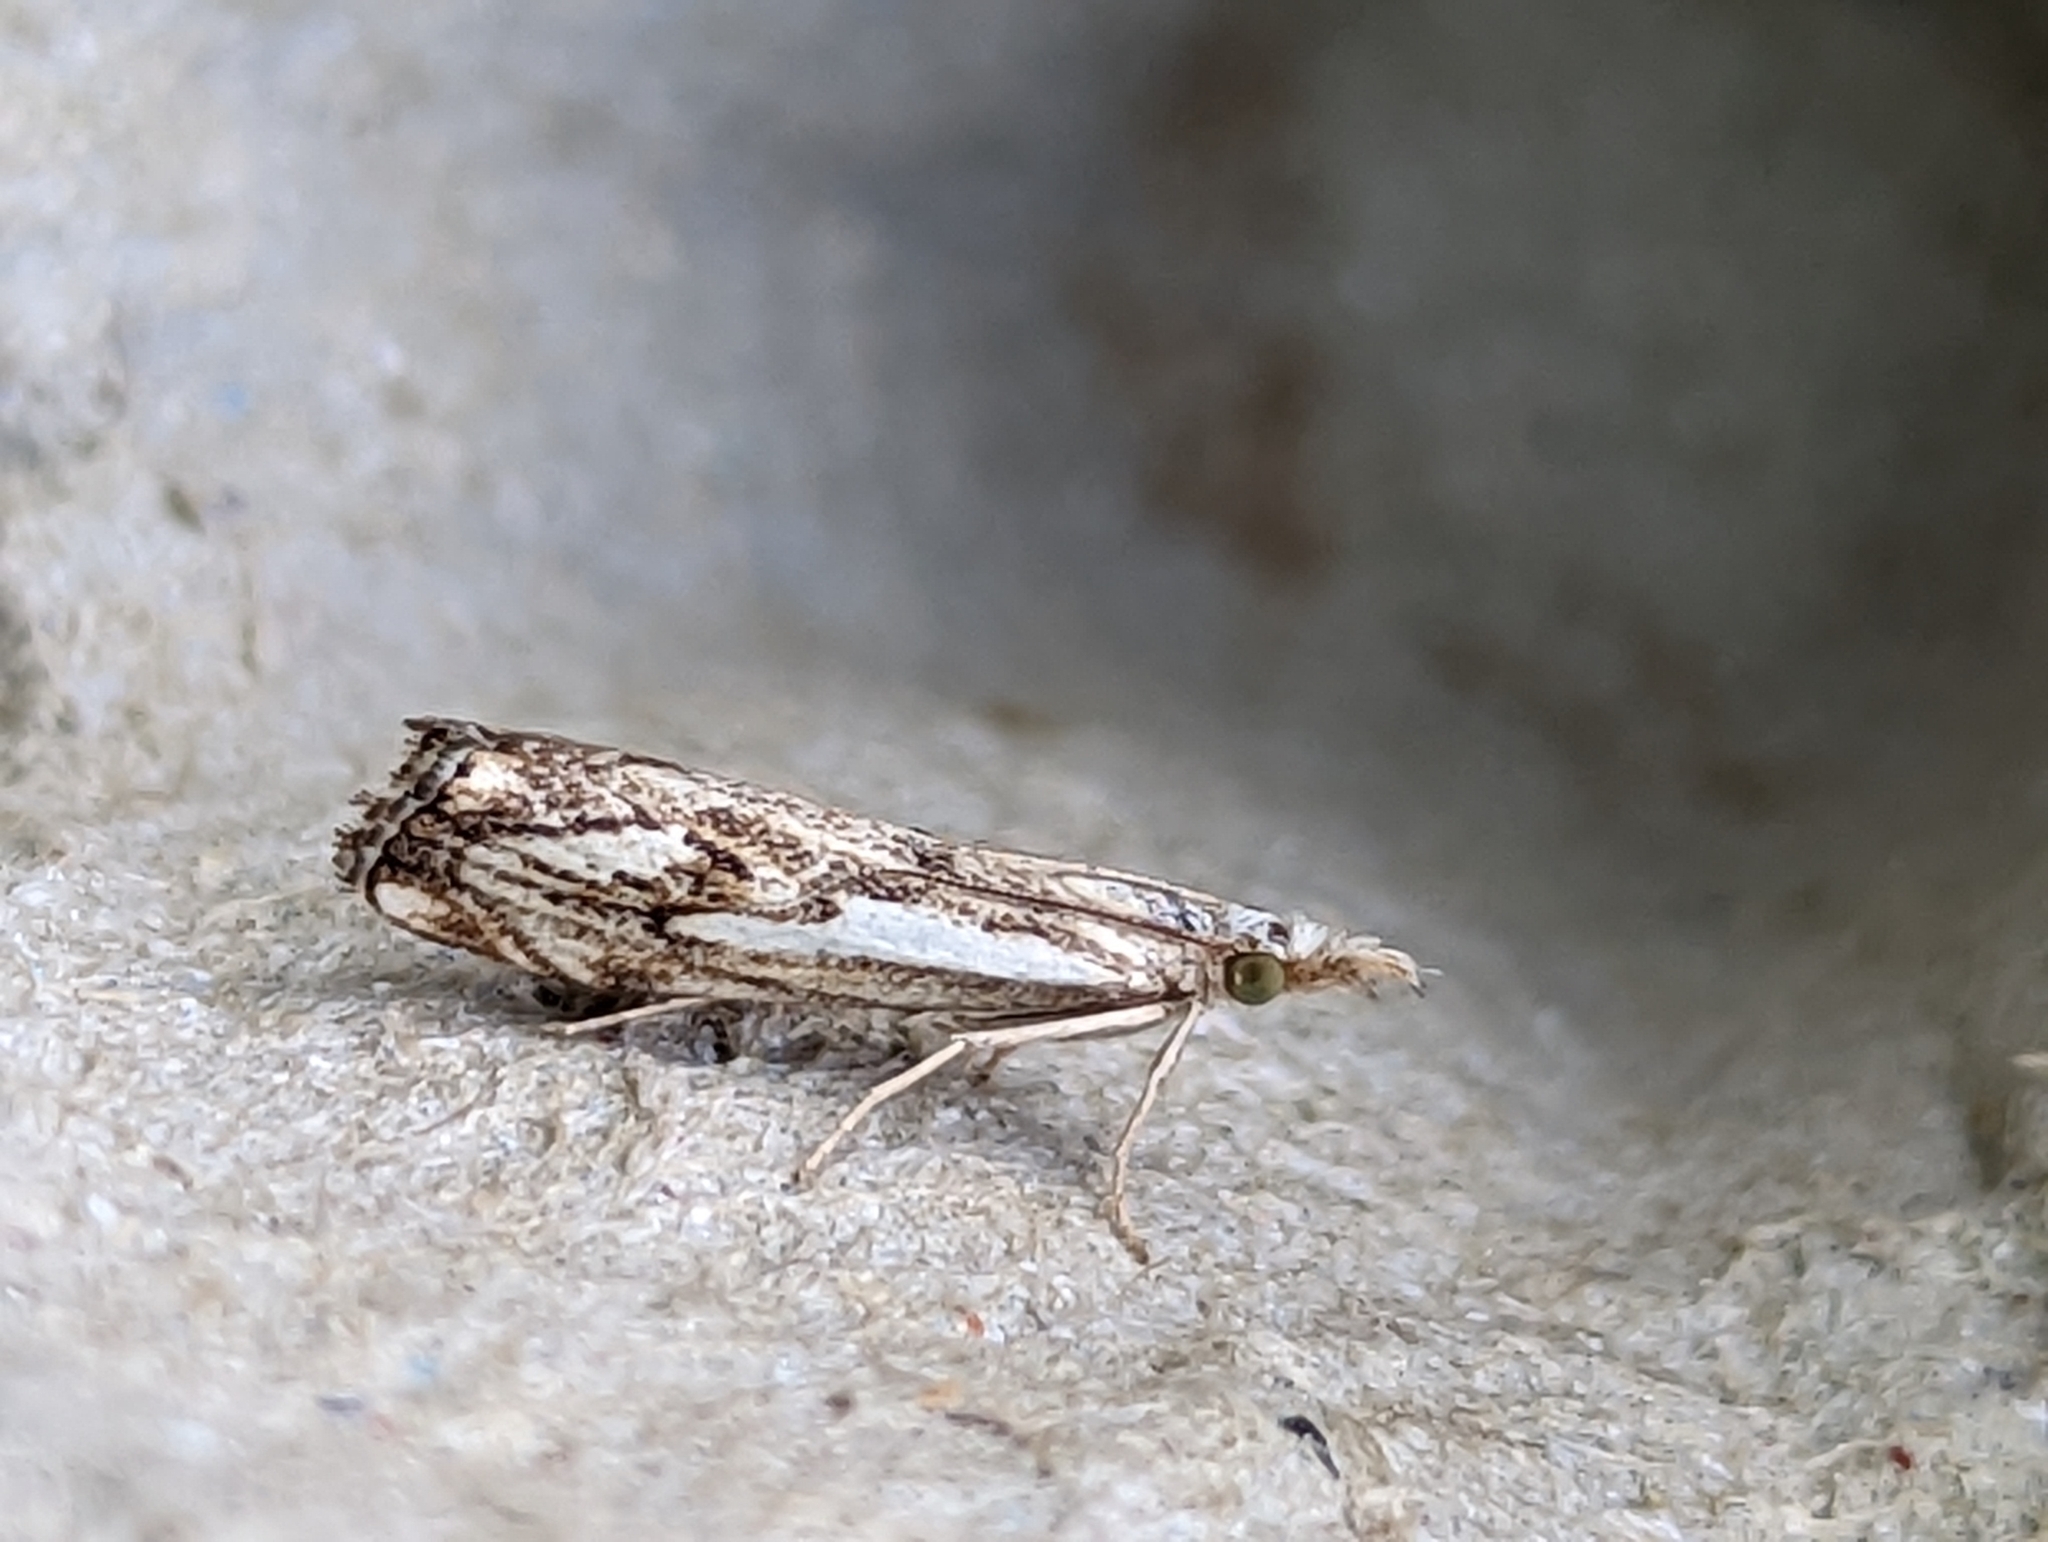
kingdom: Animalia
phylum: Arthropoda
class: Insecta
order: Lepidoptera
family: Crambidae
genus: Catoptria
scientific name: Catoptria falsella
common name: Chequered grass-veneer
